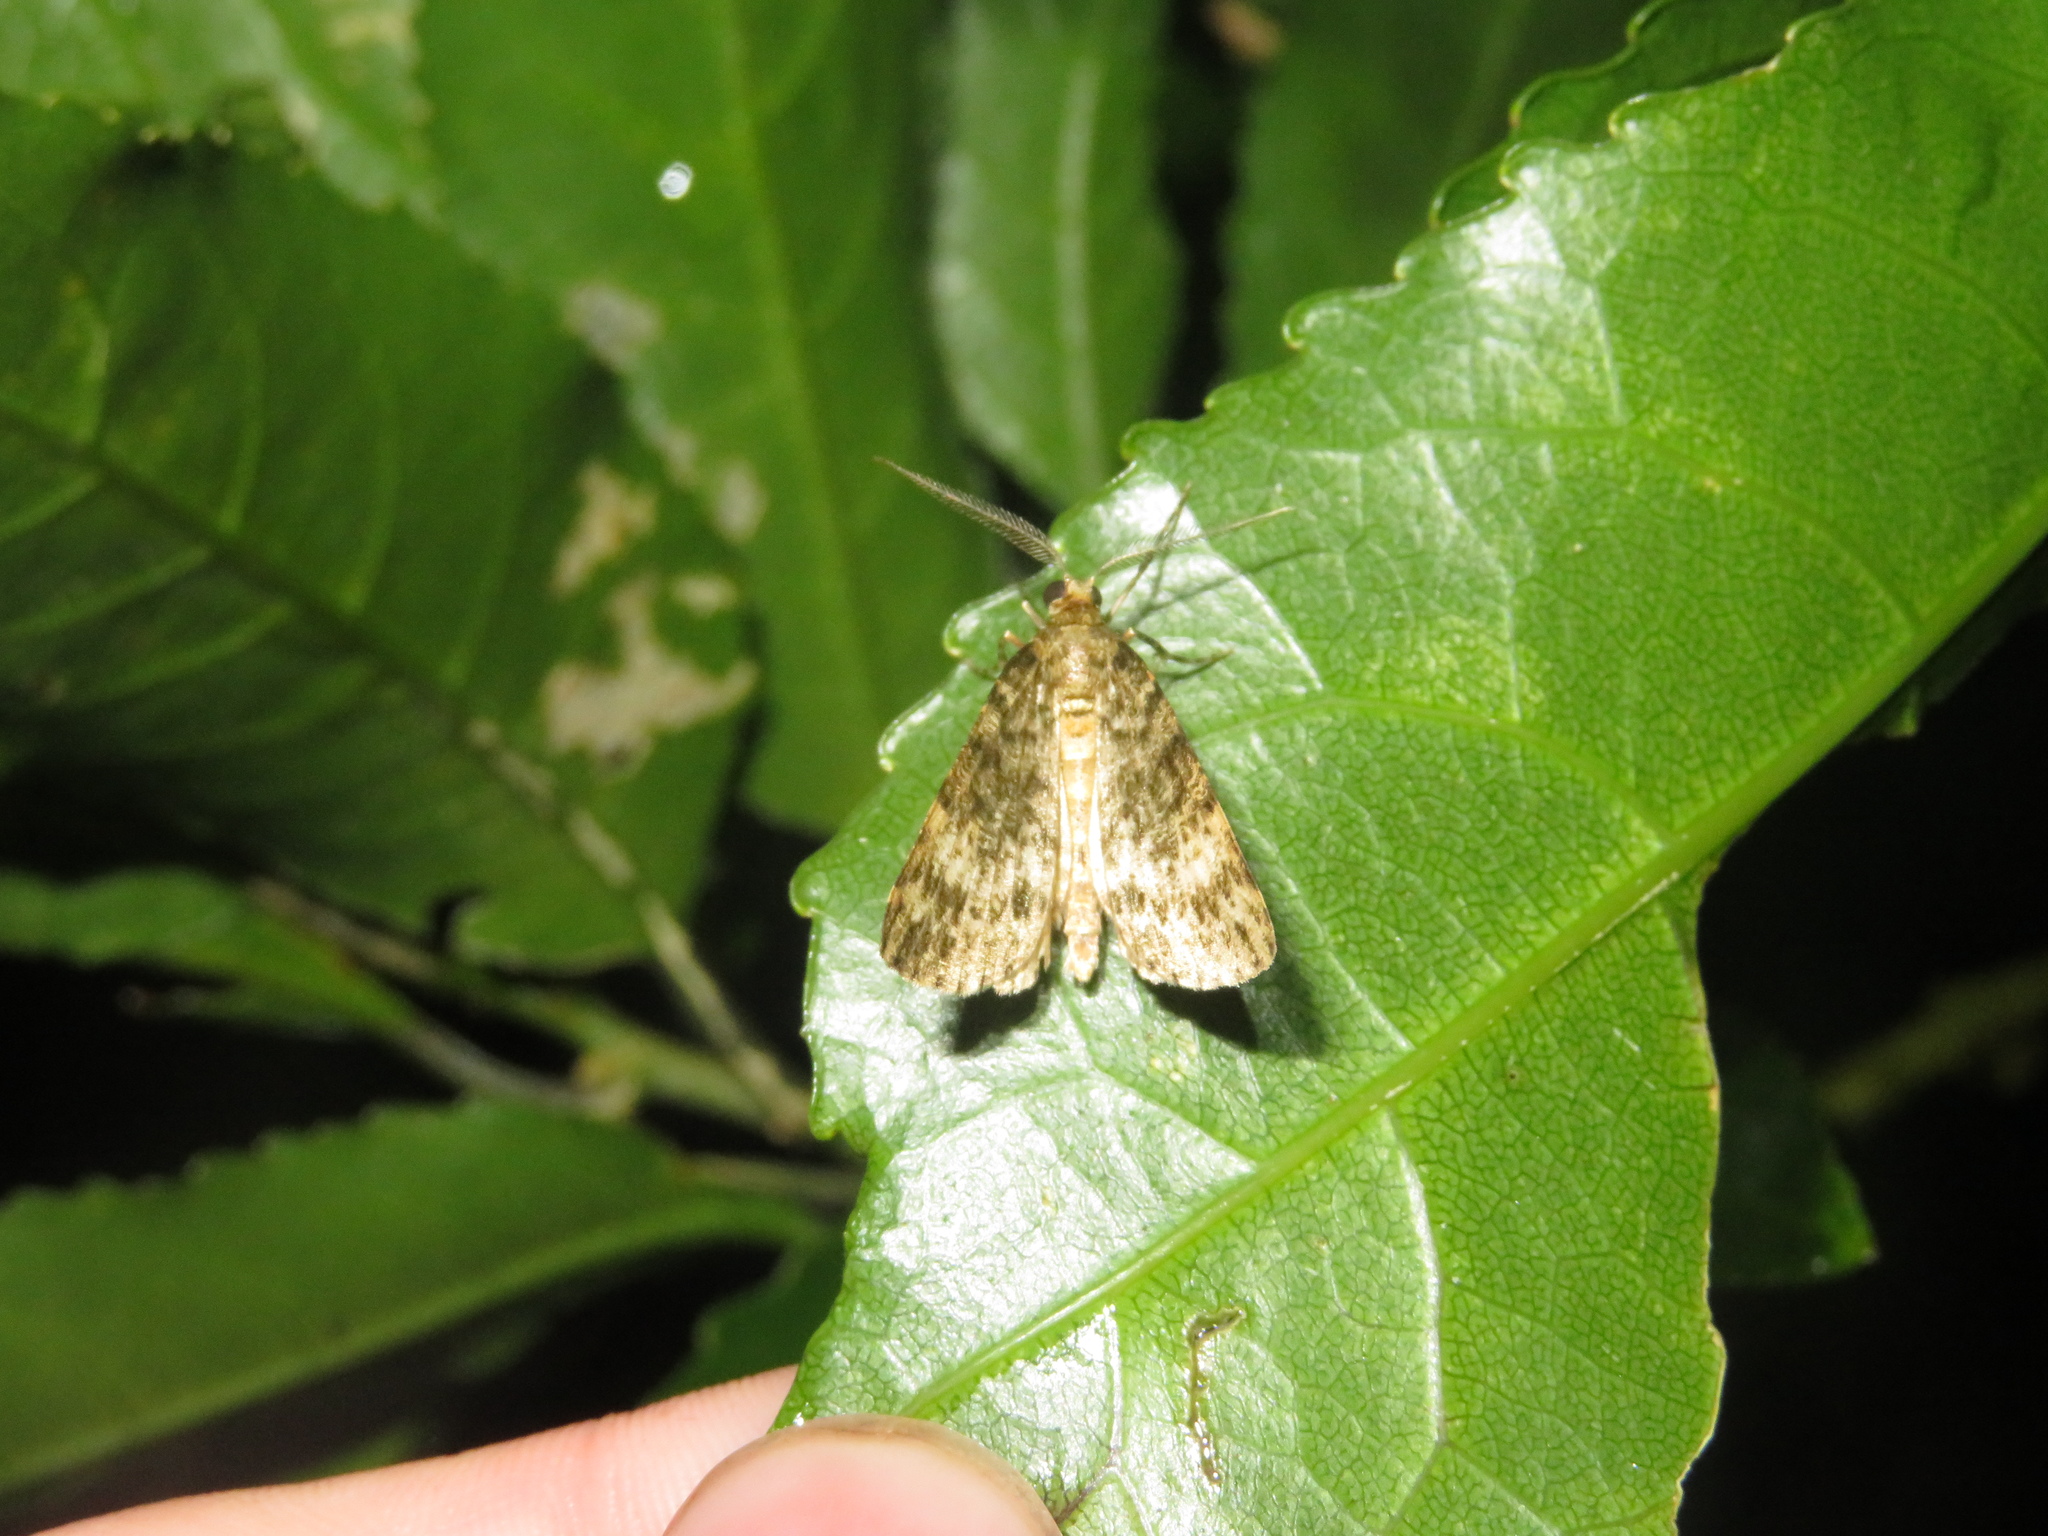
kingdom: Animalia
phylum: Arthropoda
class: Insecta
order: Lepidoptera
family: Geometridae
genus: Pseudocoremia
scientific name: Pseudocoremia indistincta
